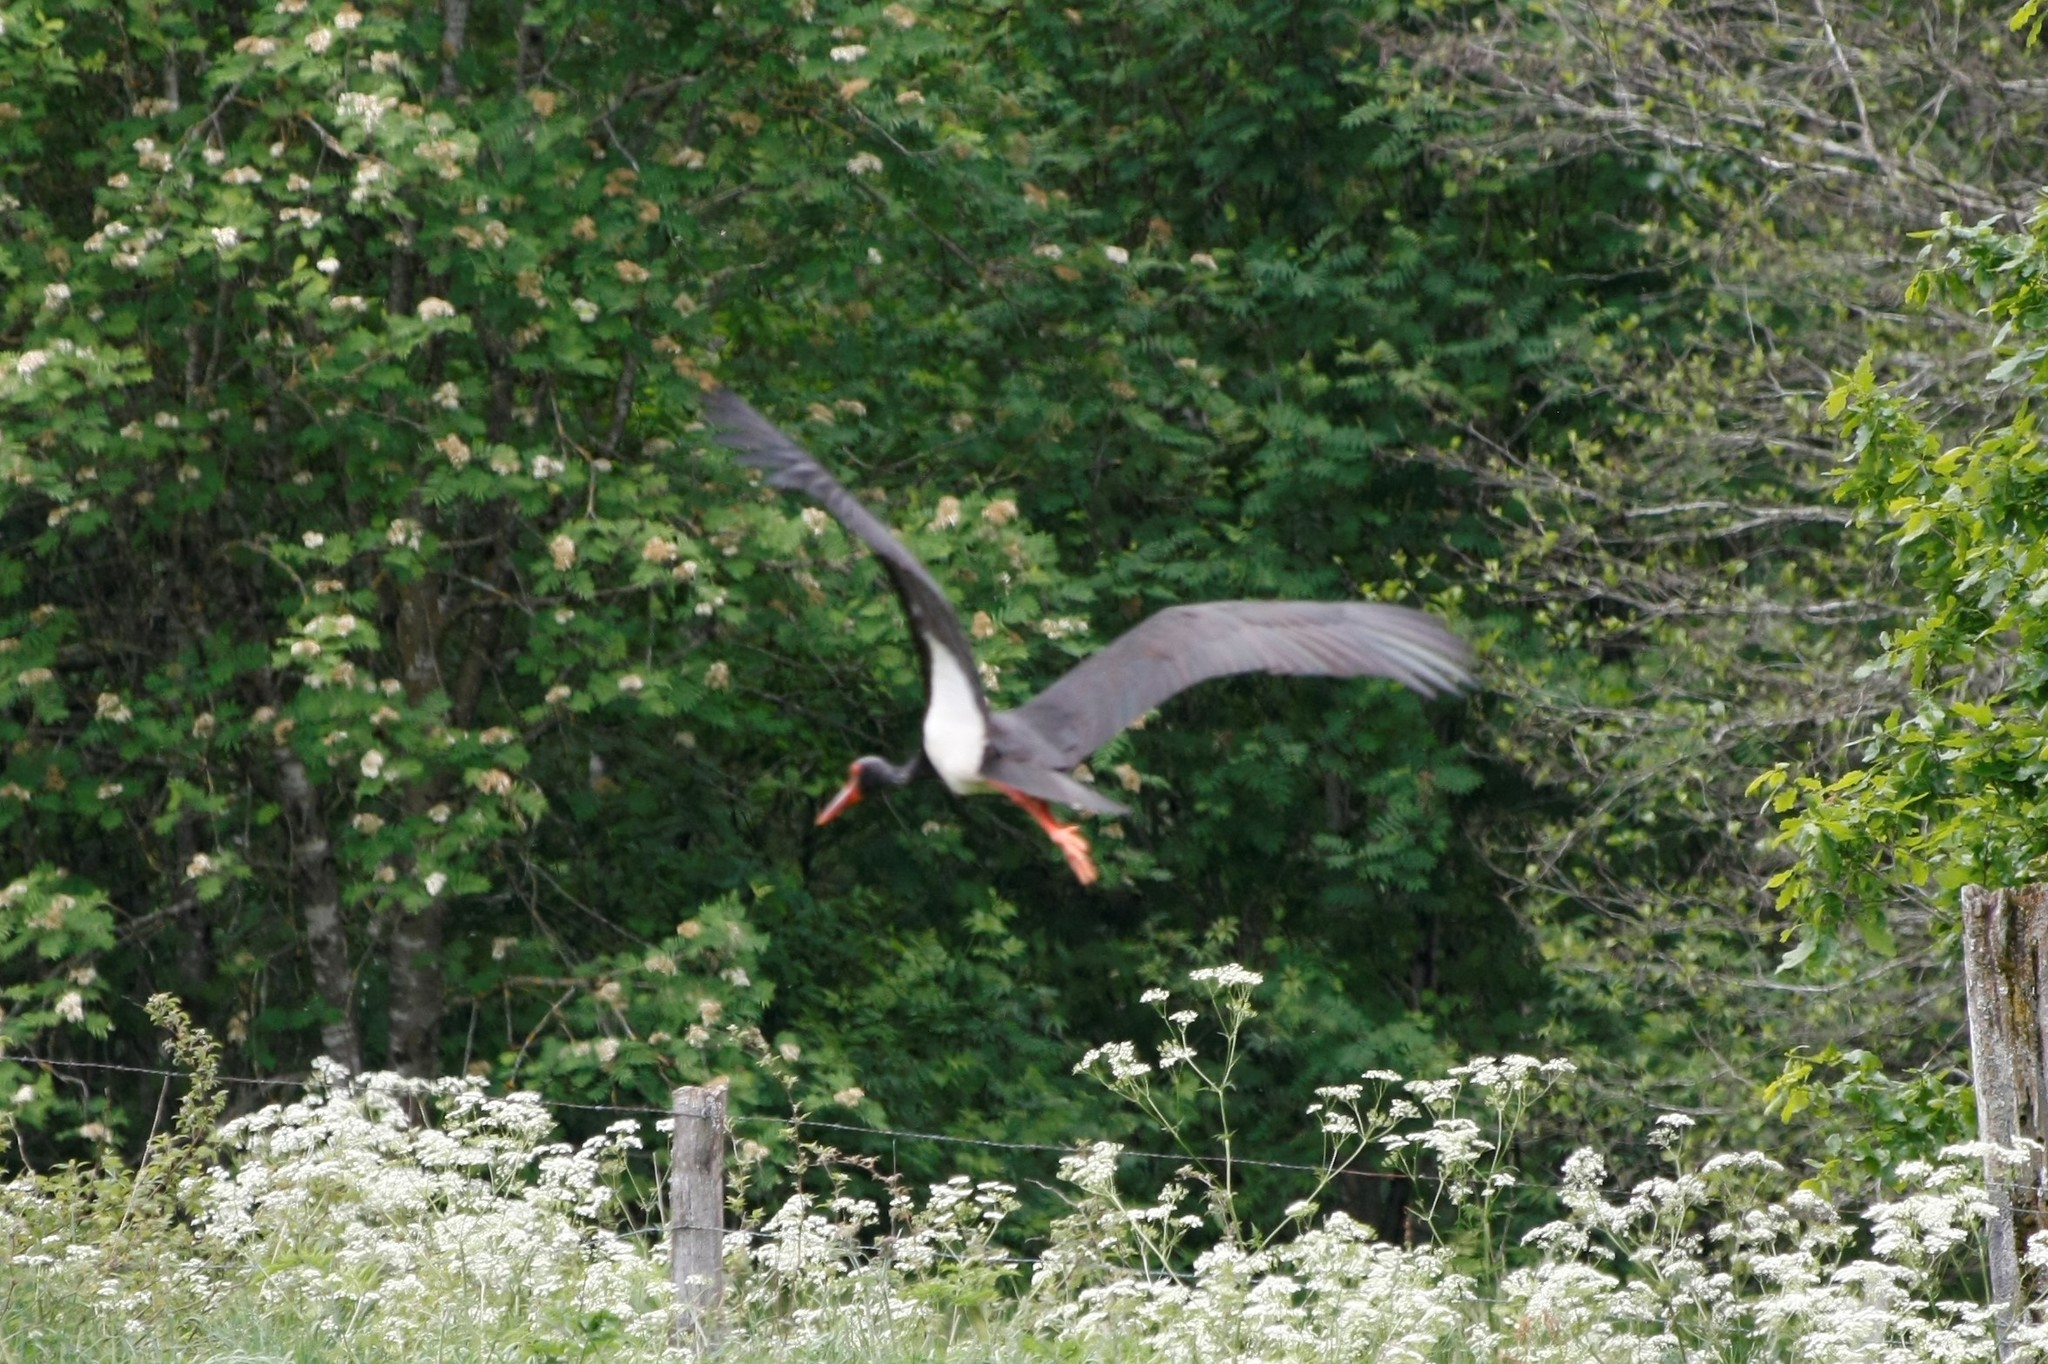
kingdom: Animalia
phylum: Chordata
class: Aves
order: Ciconiiformes
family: Ciconiidae
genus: Ciconia
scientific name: Ciconia nigra
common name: Black stork
